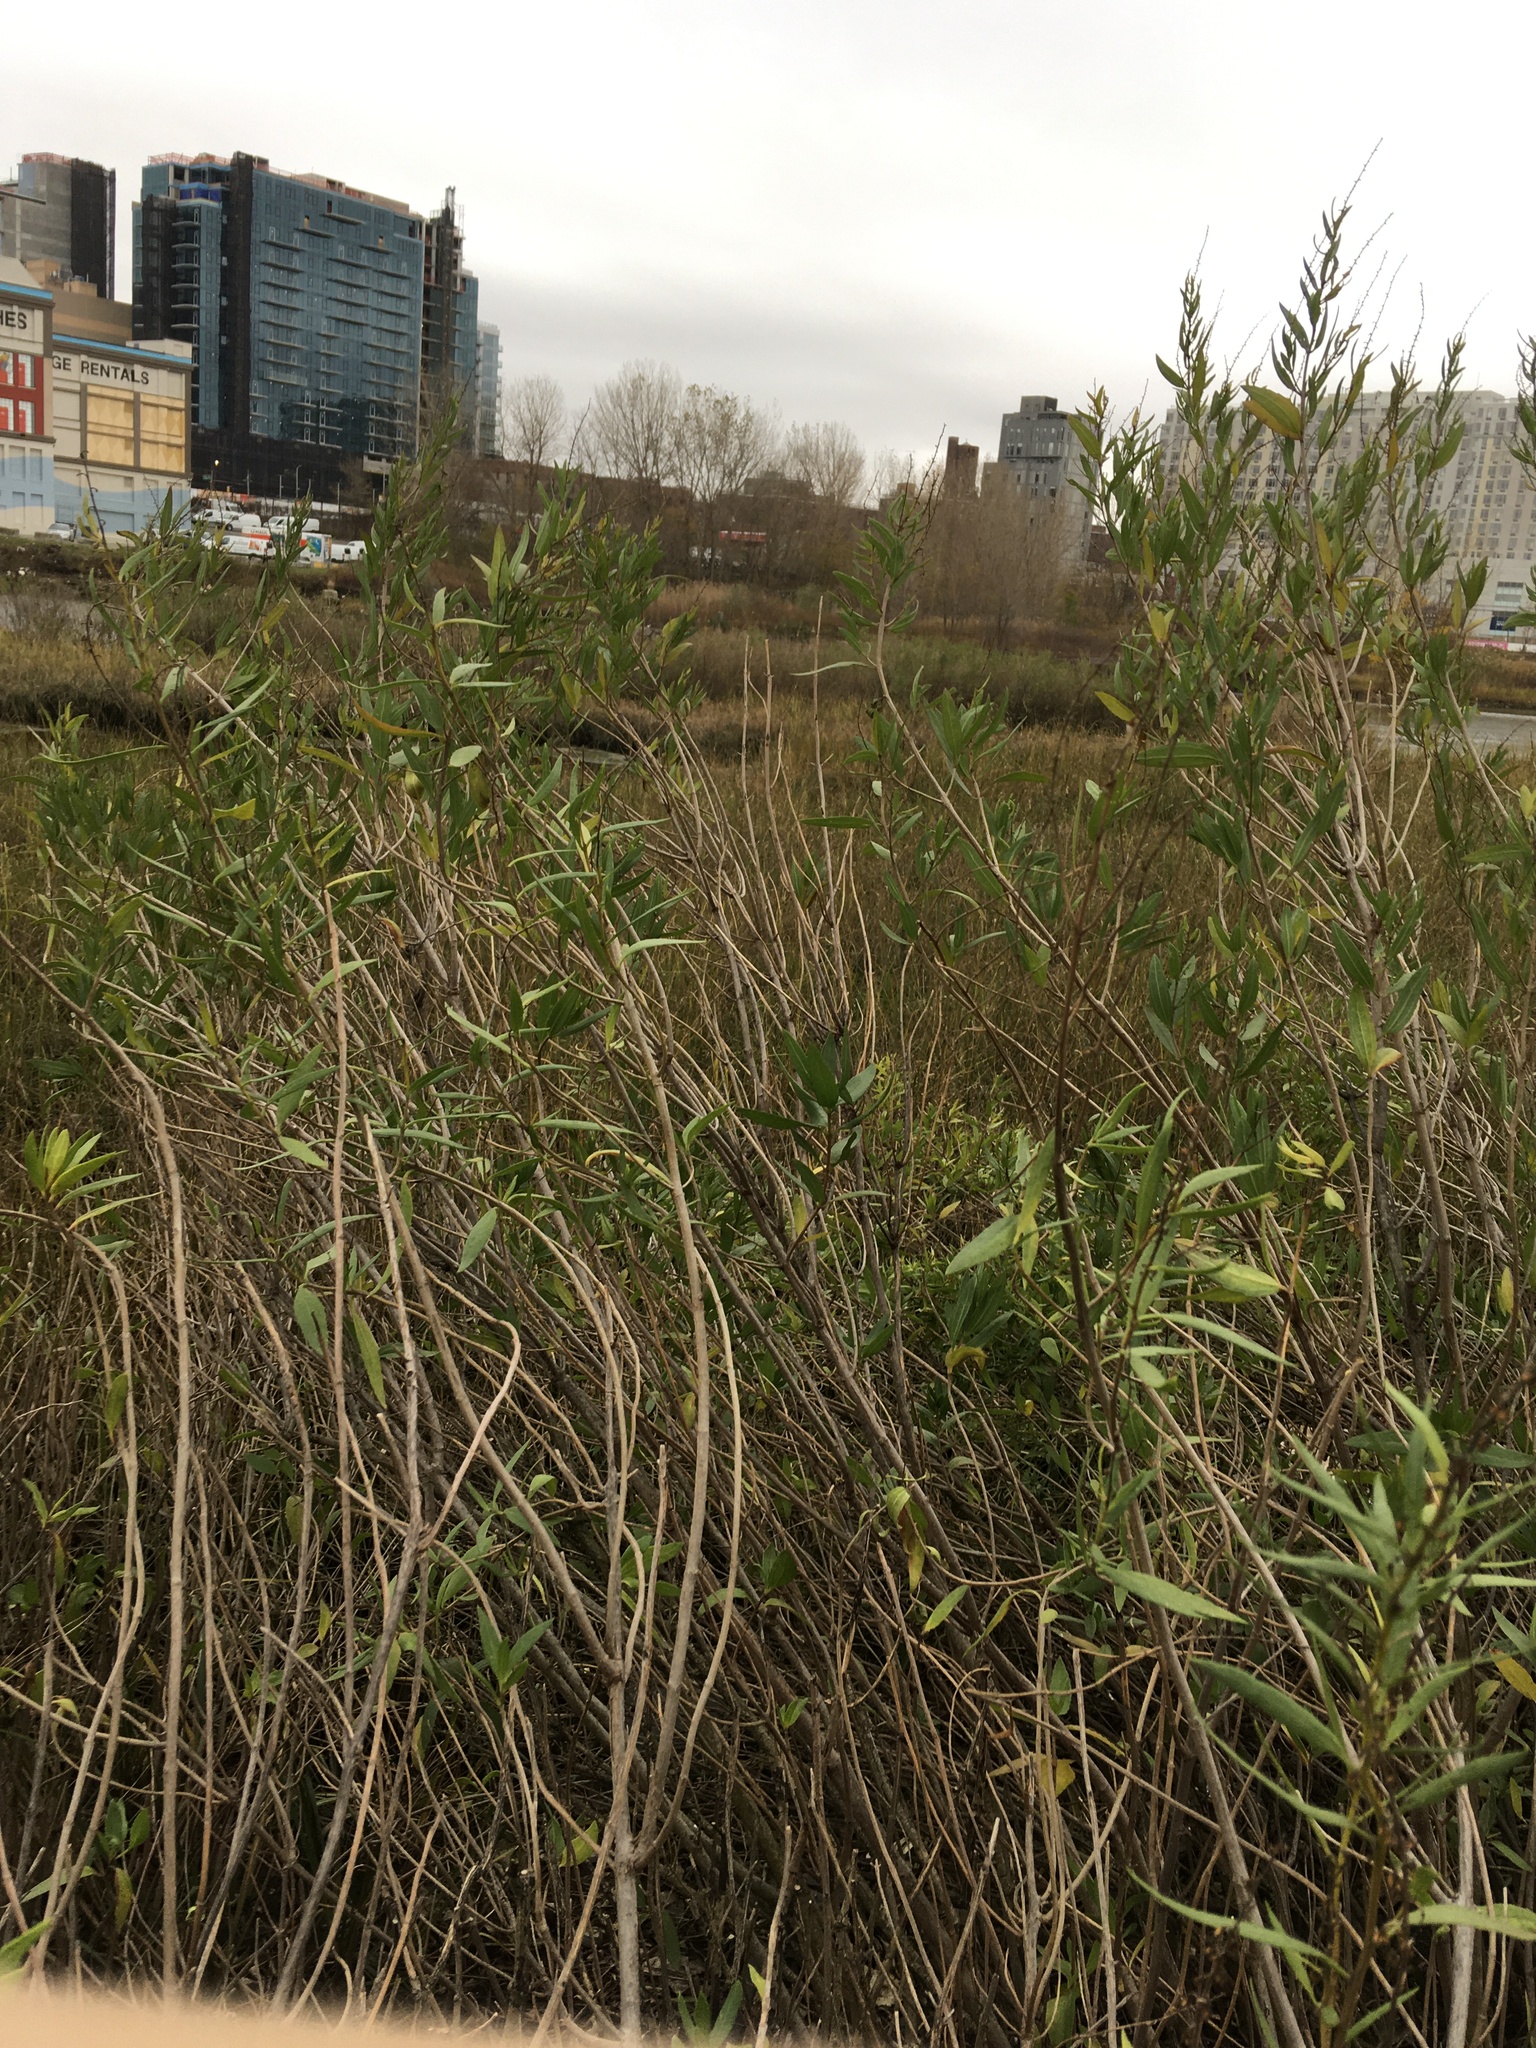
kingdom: Plantae
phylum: Tracheophyta
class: Magnoliopsida
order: Asterales
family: Asteraceae
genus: Iva
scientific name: Iva frutescens
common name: Big-leaved marsh-elder
